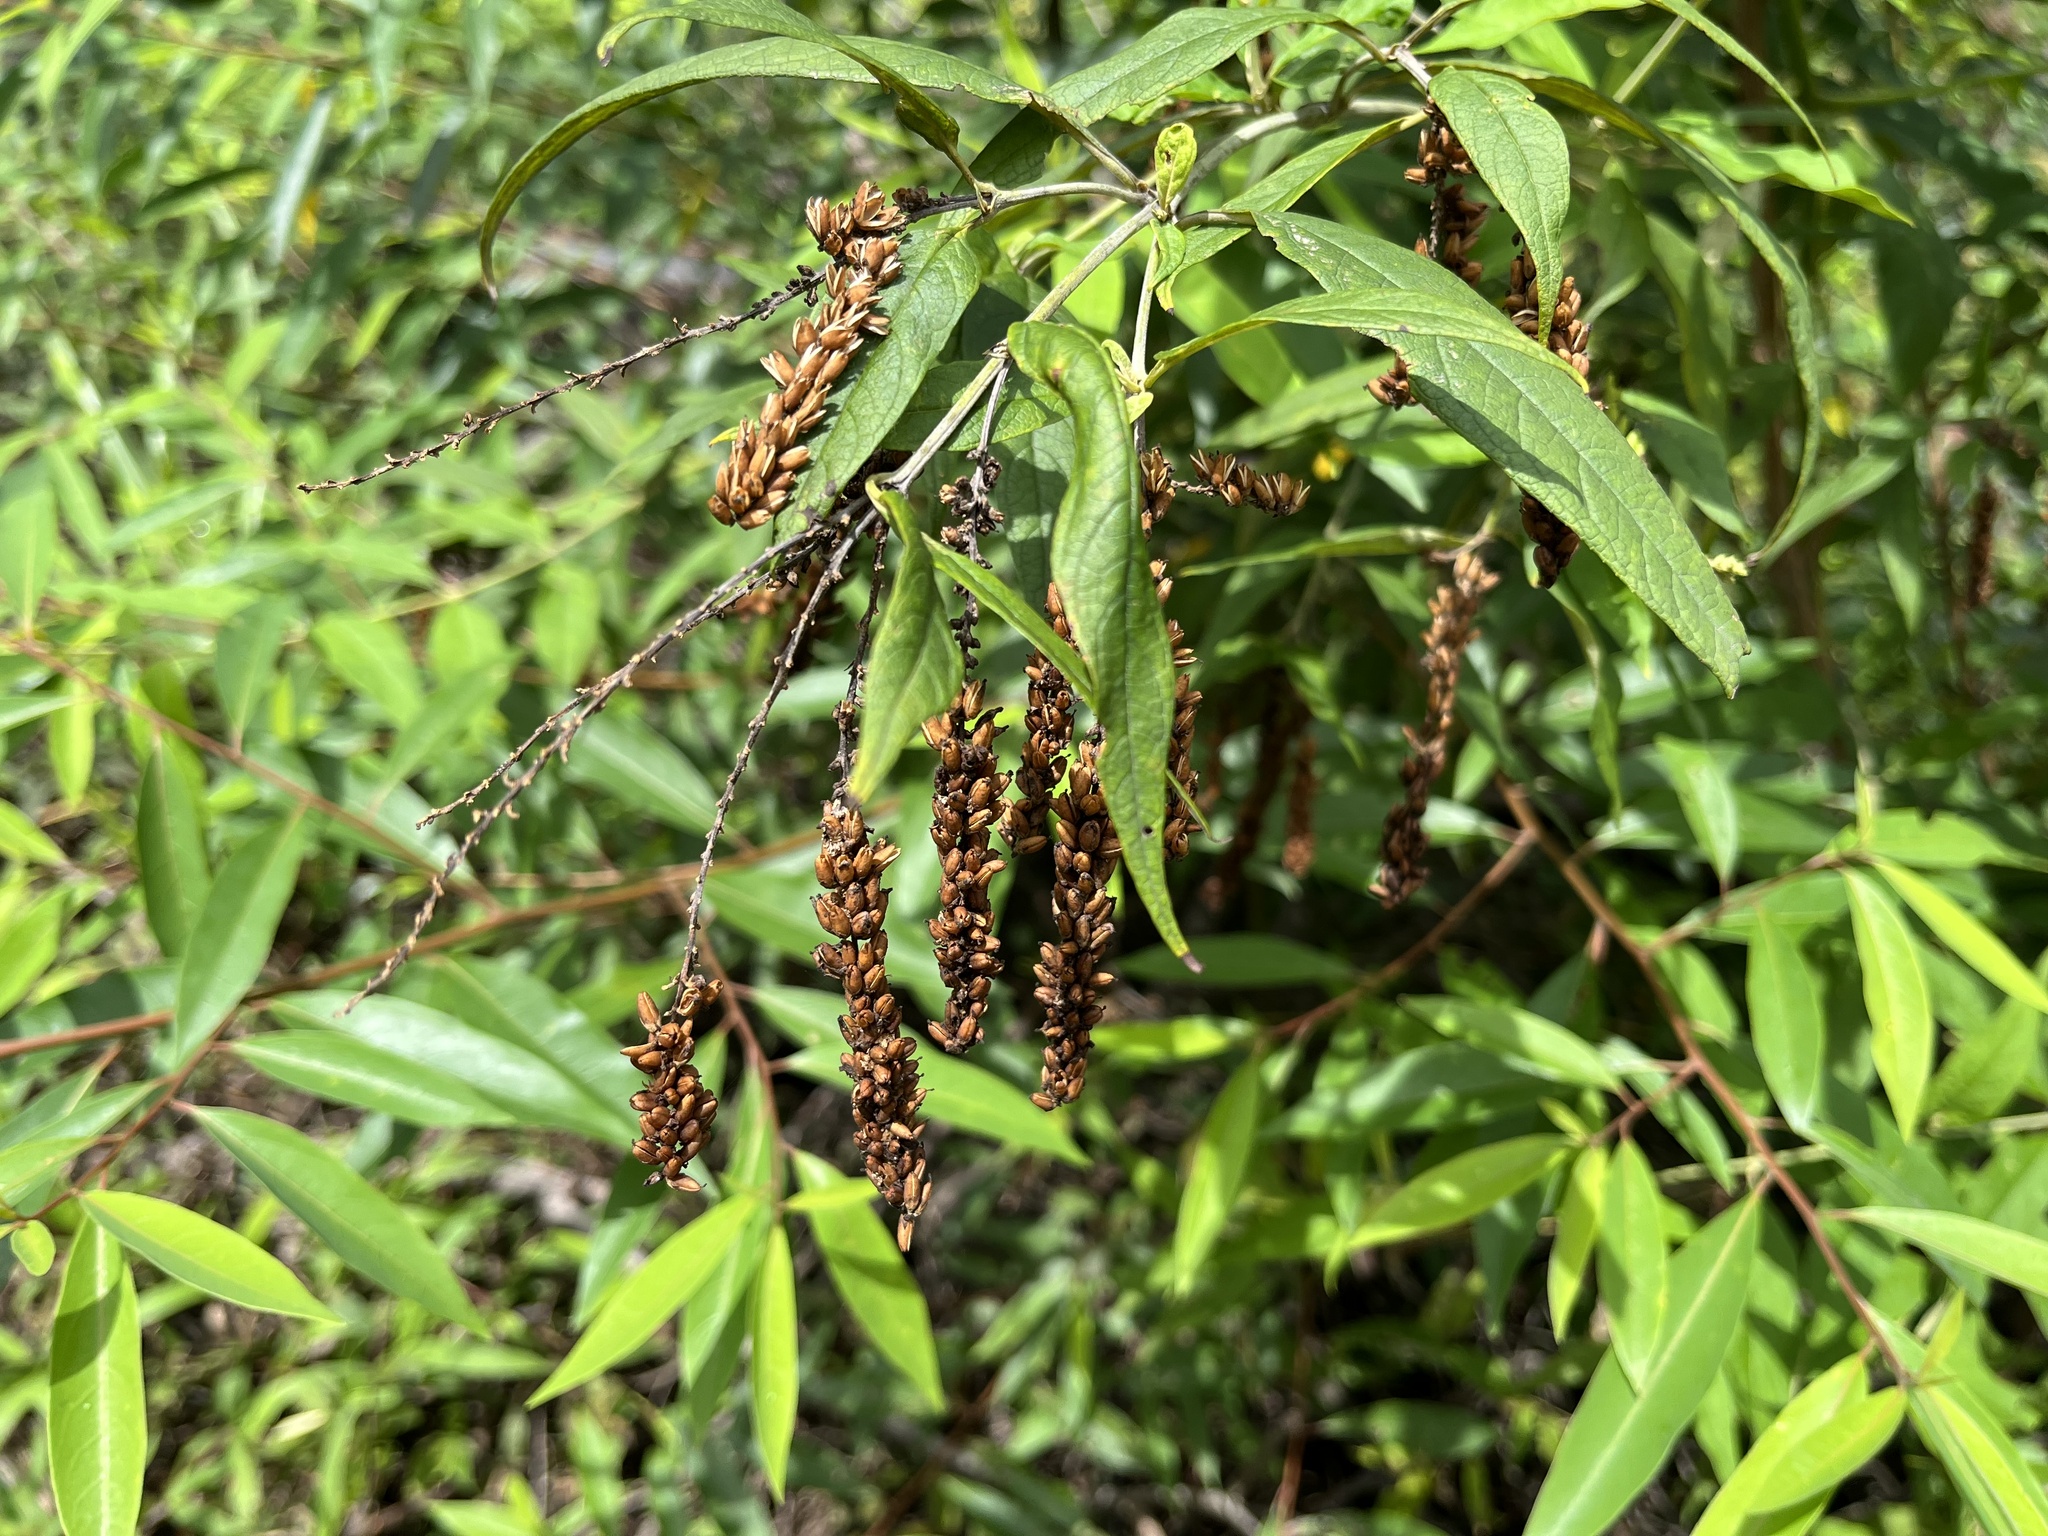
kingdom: Plantae
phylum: Tracheophyta
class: Magnoliopsida
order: Lamiales
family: Scrophulariaceae
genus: Buddleja
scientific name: Buddleja asiatica
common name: Dog tail
